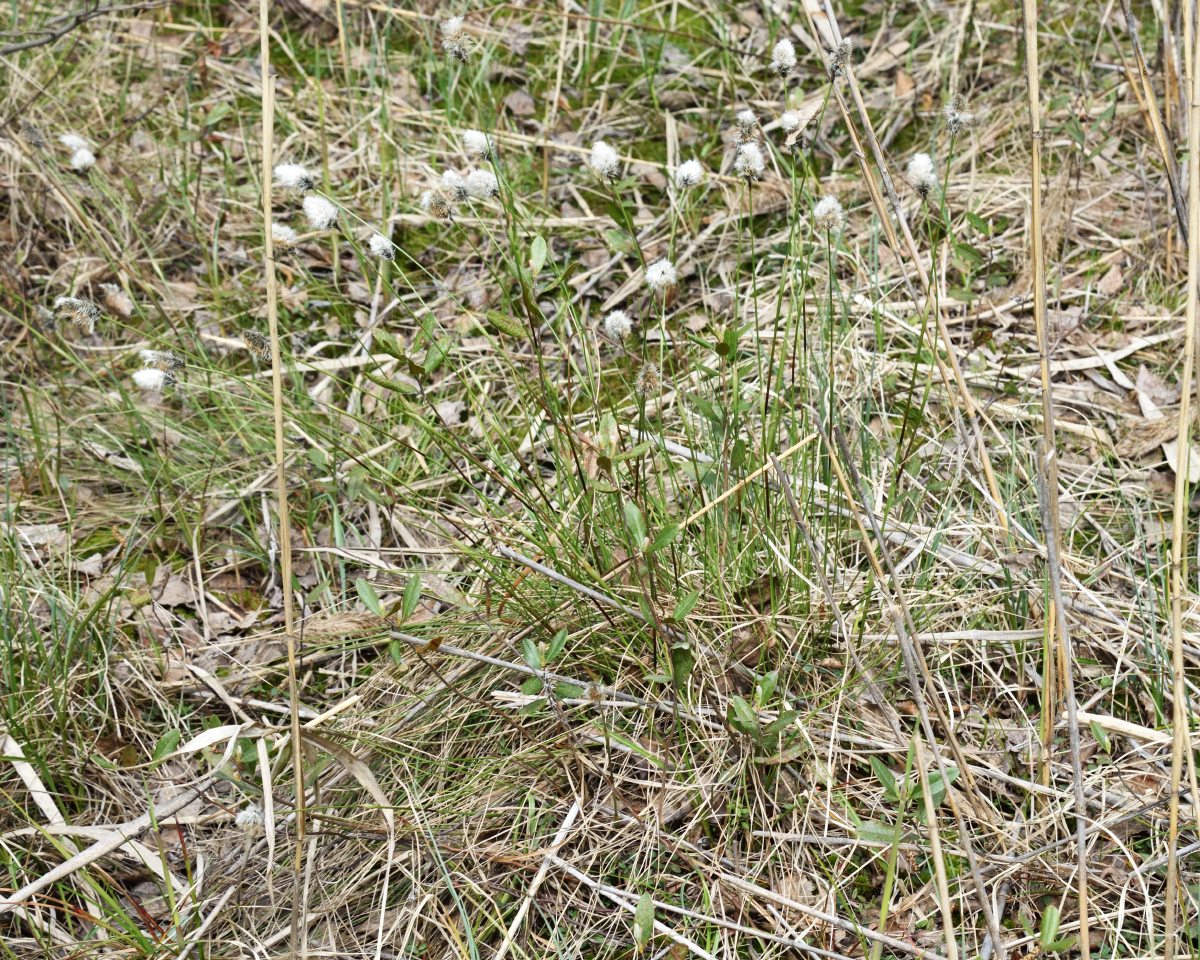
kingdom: Plantae
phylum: Tracheophyta
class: Liliopsida
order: Poales
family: Cyperaceae
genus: Eriophorum
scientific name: Eriophorum vaginatum
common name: Hare's-tail cottongrass
